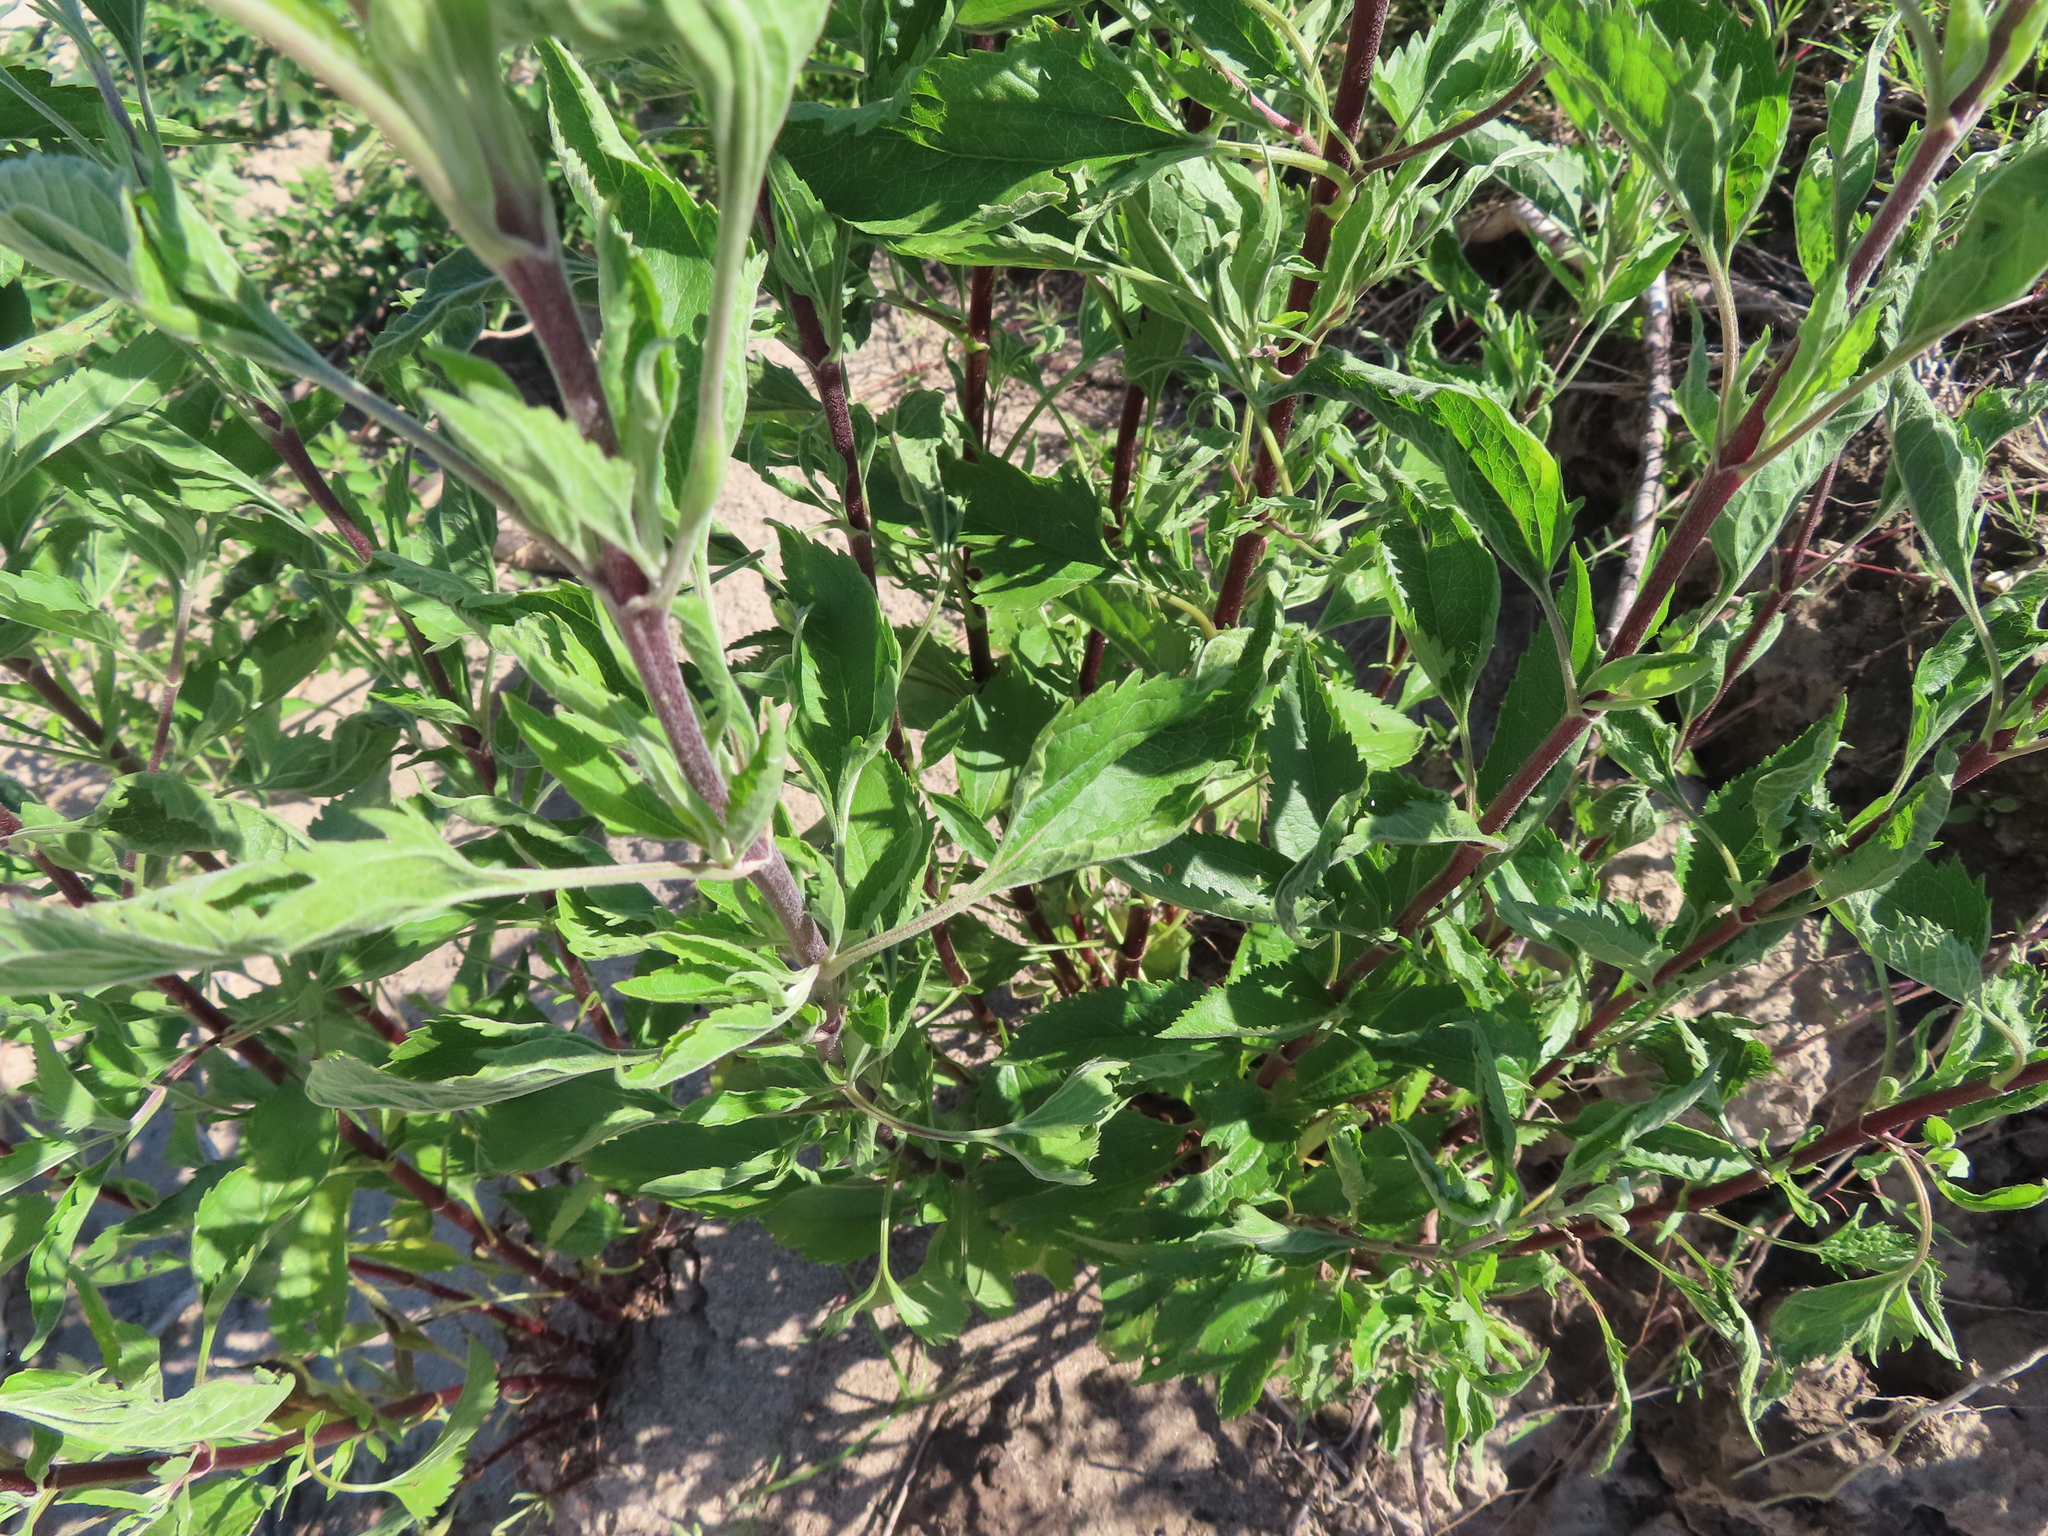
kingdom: Plantae
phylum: Tracheophyta
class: Magnoliopsida
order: Asterales
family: Asteraceae
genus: Eupatorium
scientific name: Eupatorium serotinum
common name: Late boneset
